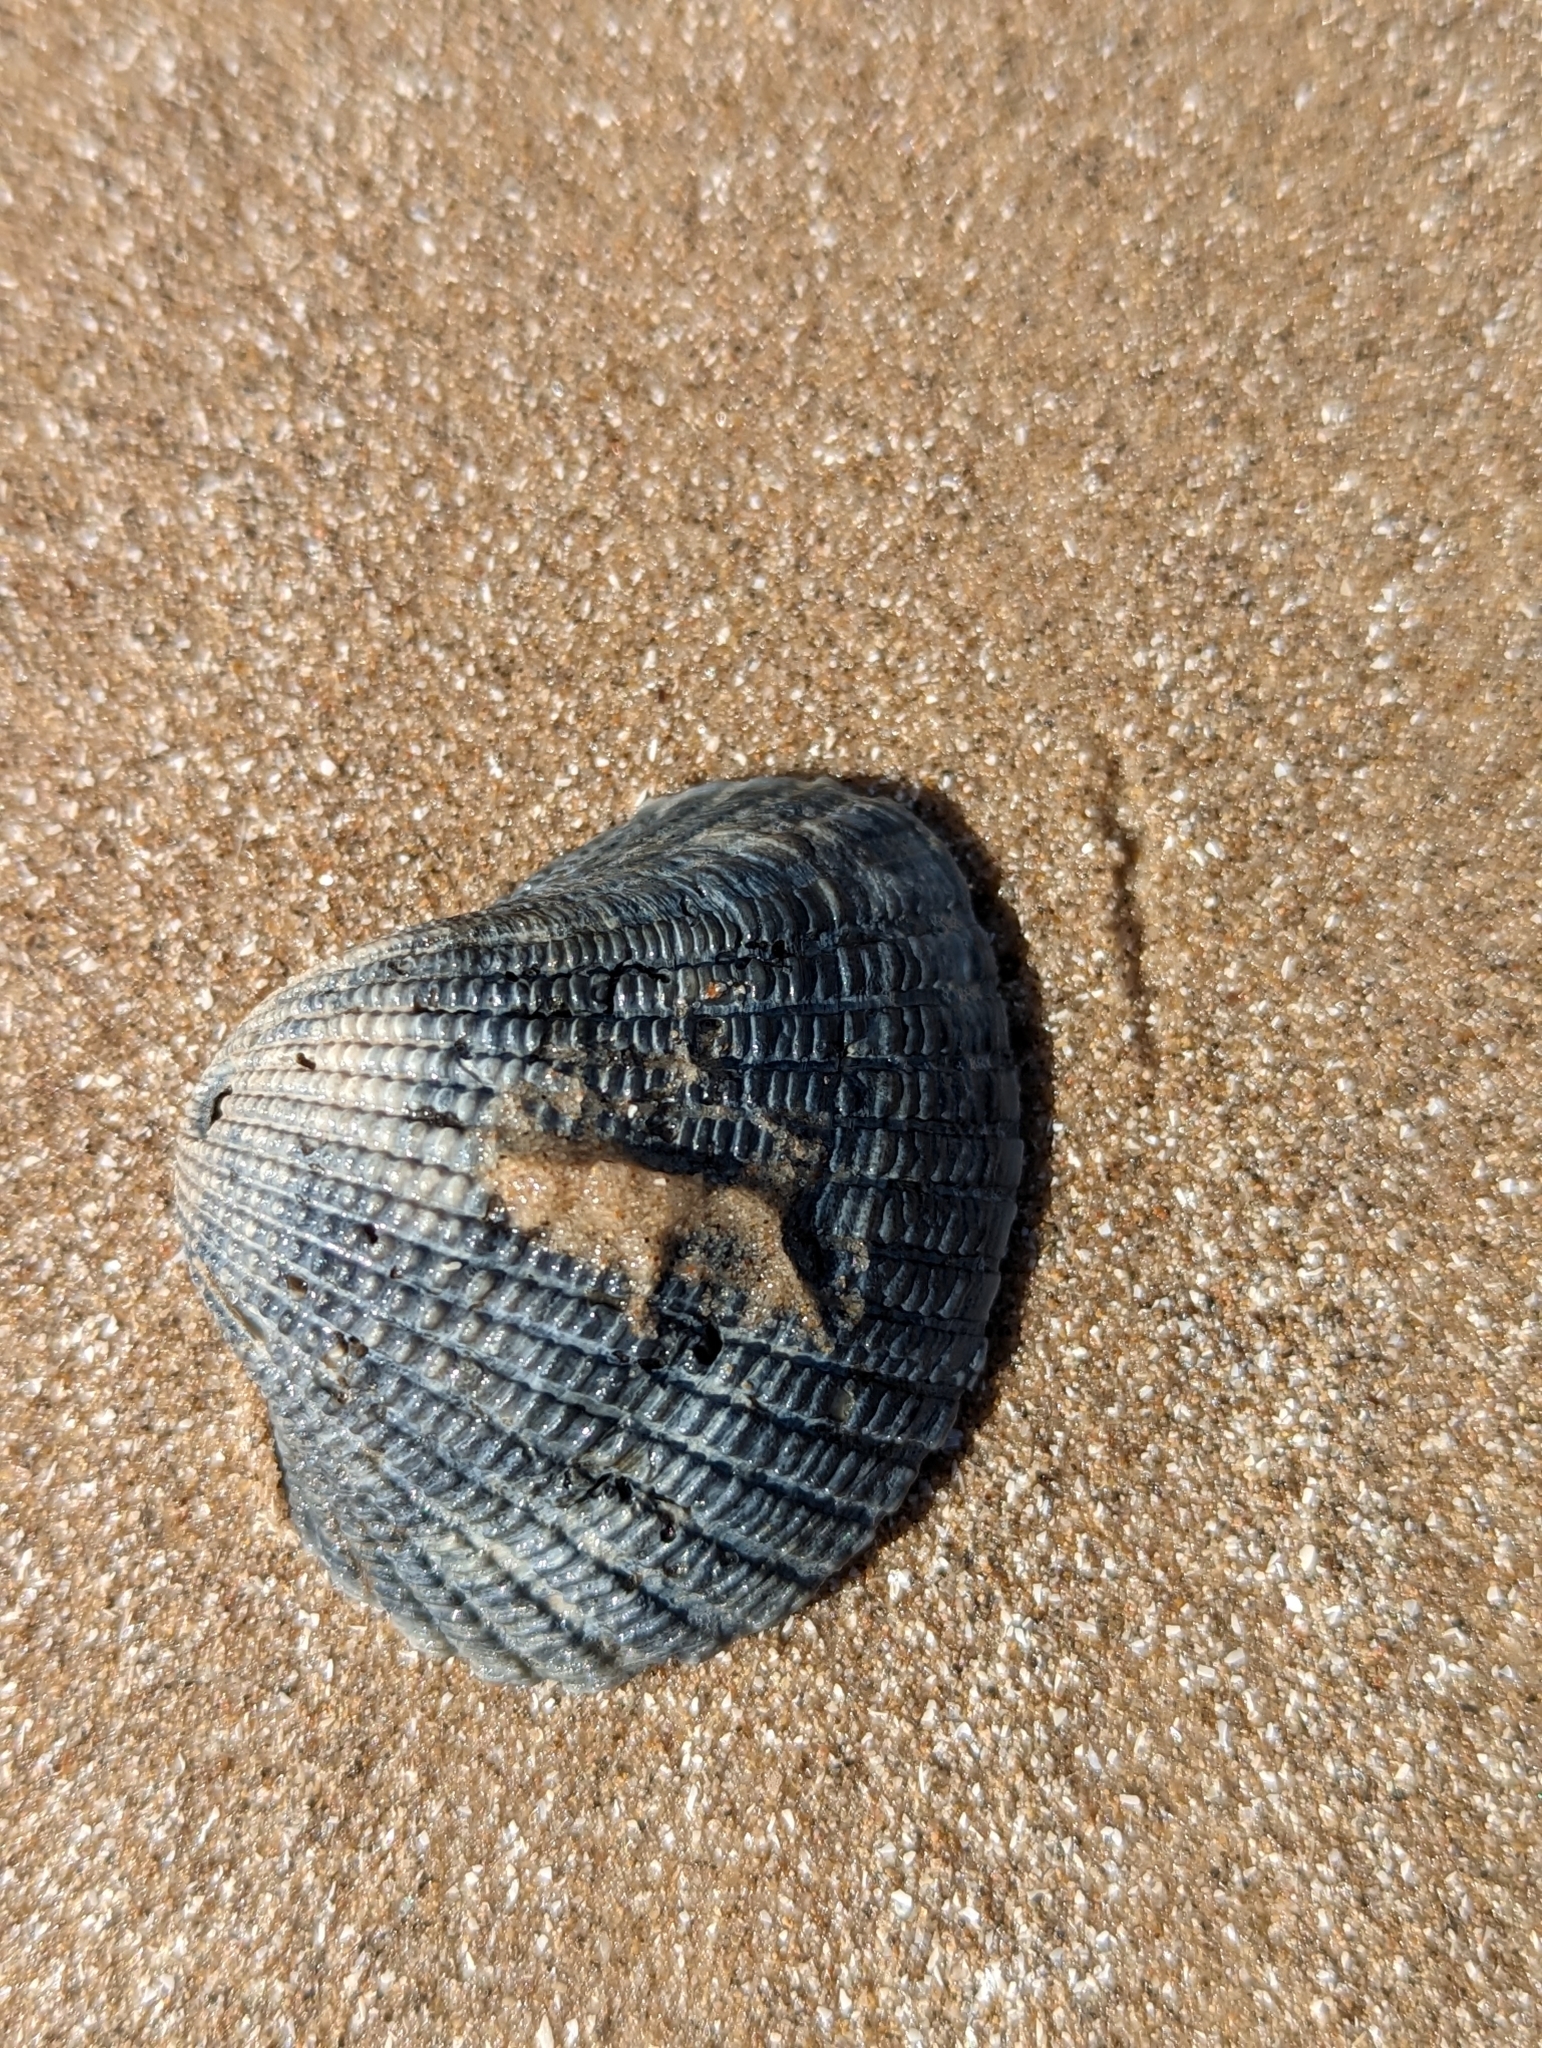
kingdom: Animalia
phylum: Mollusca
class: Bivalvia
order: Arcida
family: Arcidae
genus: Anadara
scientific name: Anadara brasiliana
